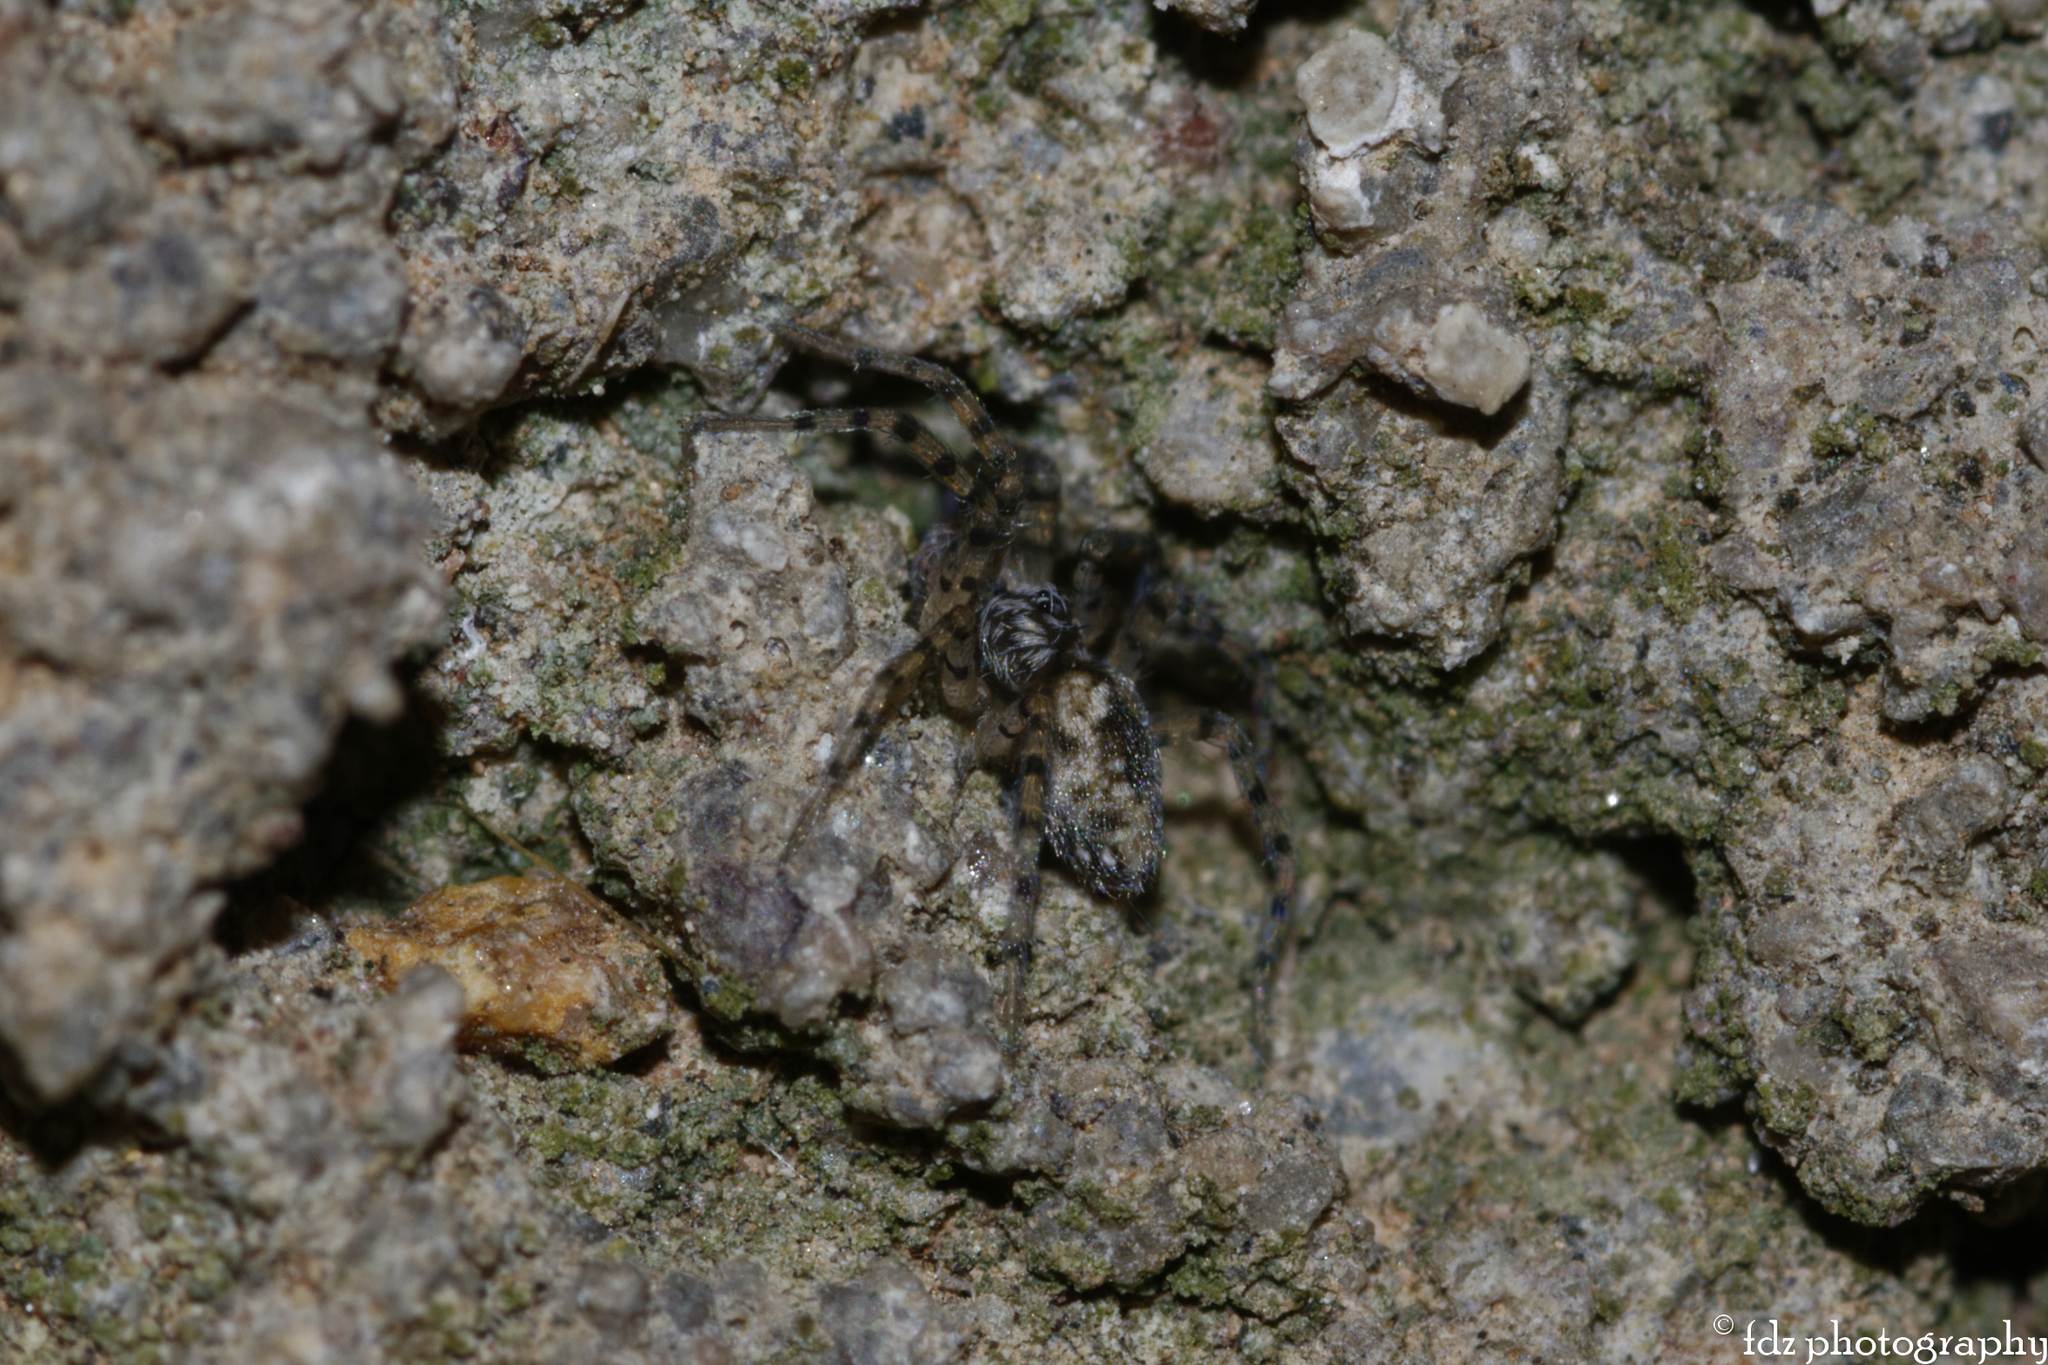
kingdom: Animalia
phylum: Arthropoda
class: Arachnida
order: Araneae
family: Oecobiidae
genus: Oecobius
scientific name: Oecobius maculatus
